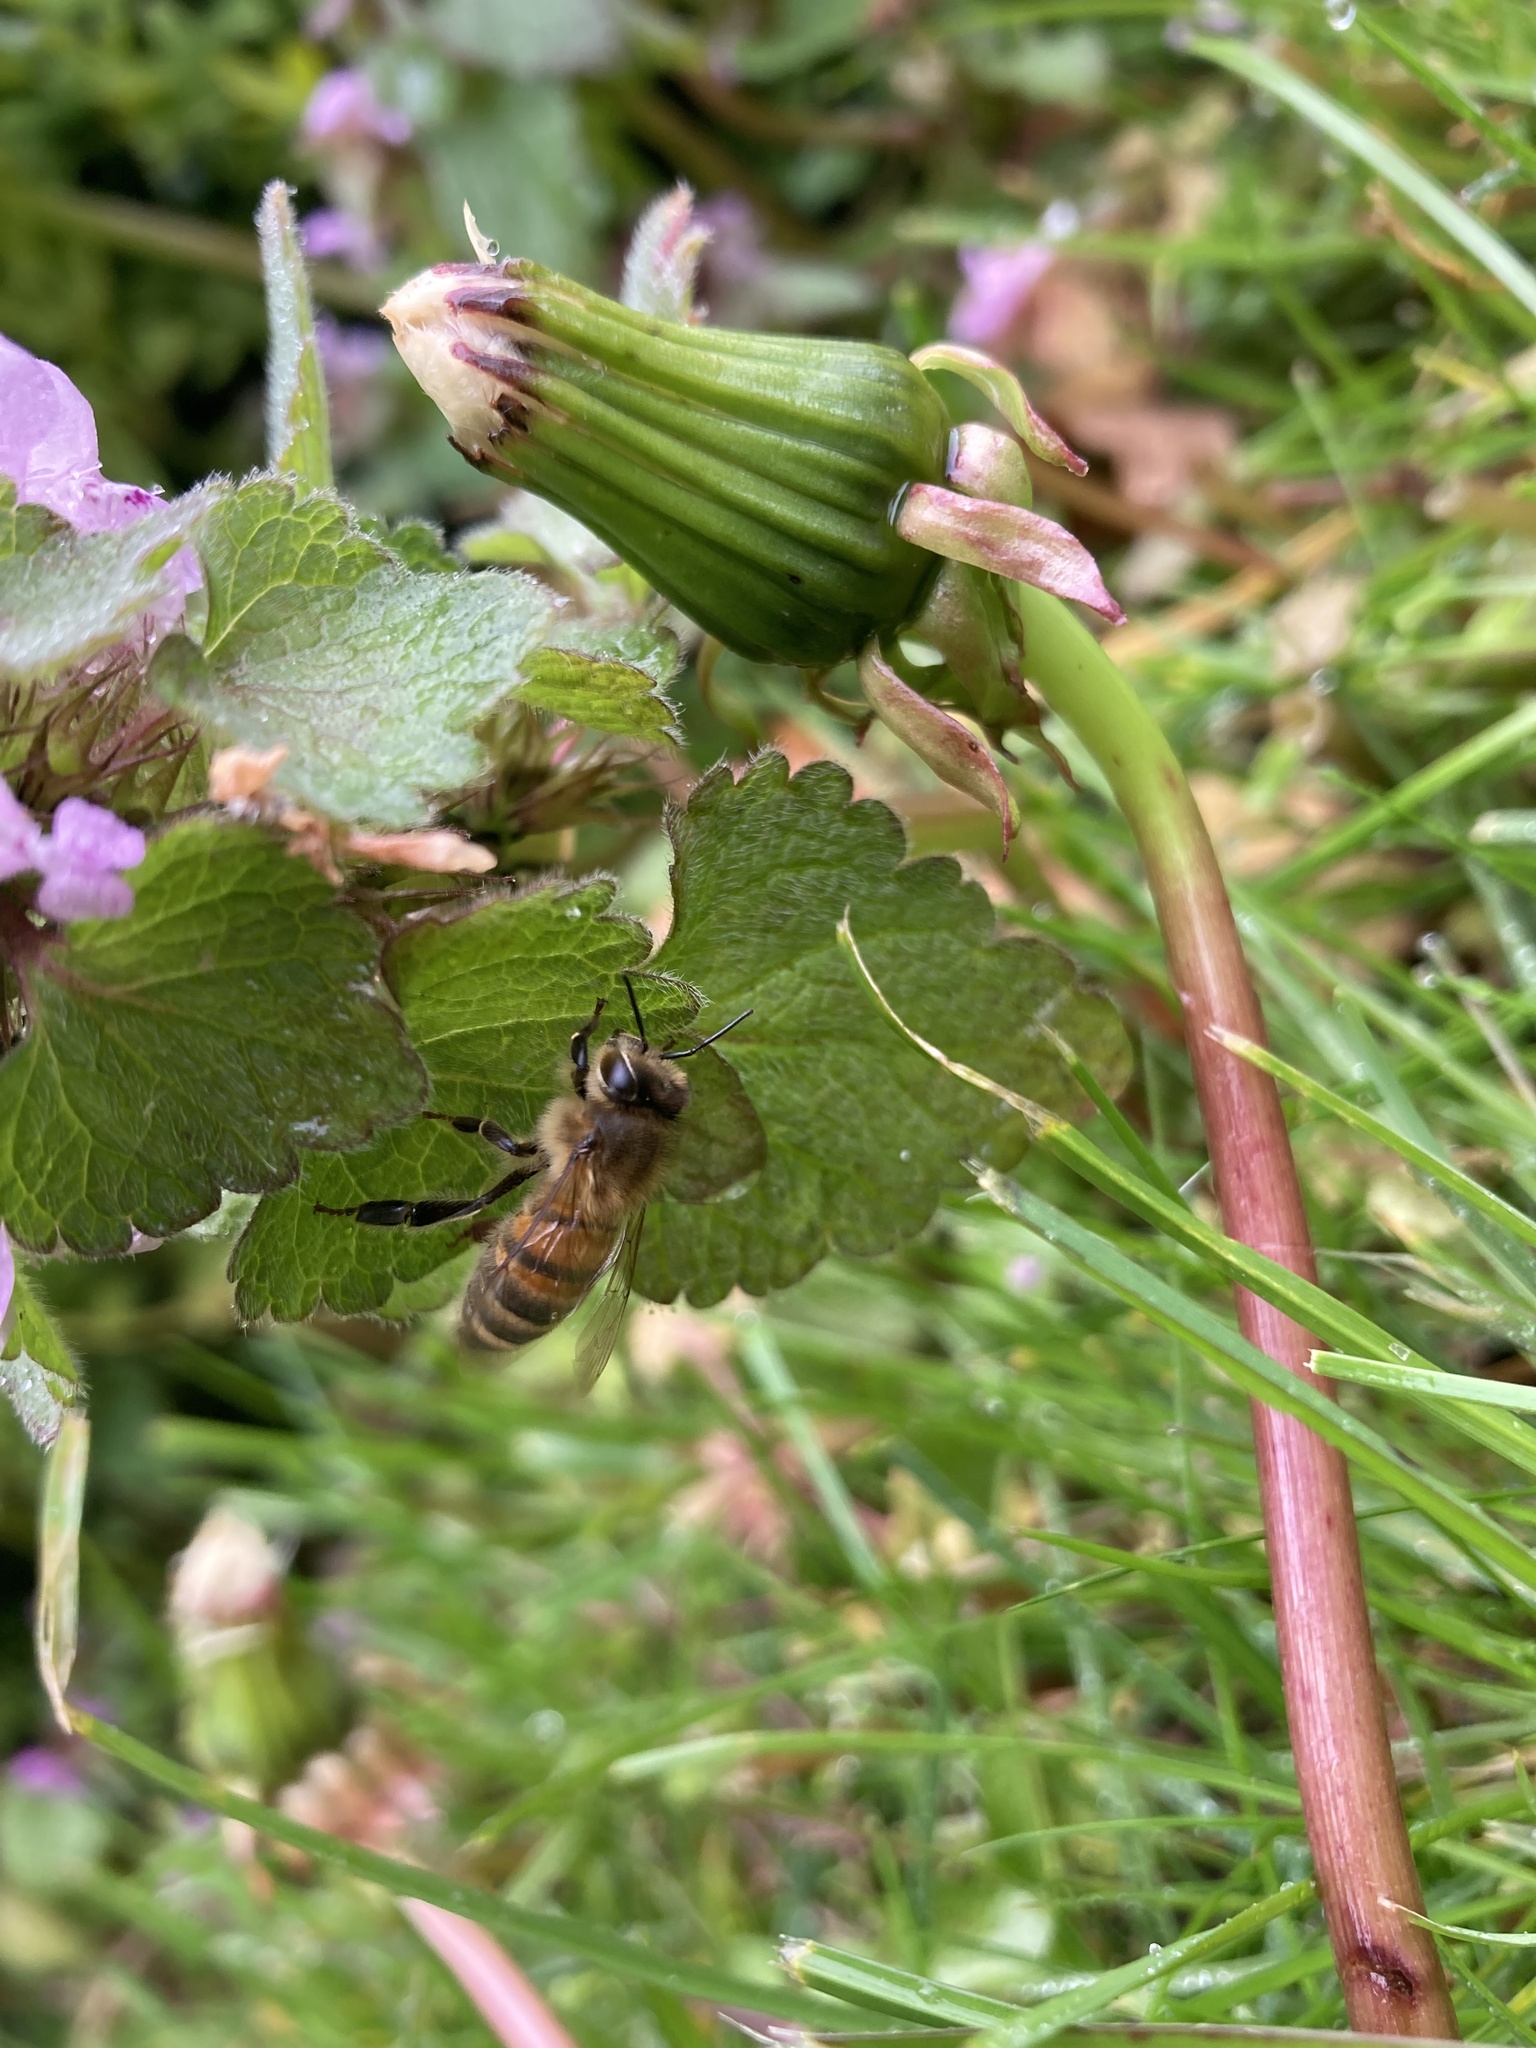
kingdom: Animalia
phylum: Arthropoda
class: Insecta
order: Hymenoptera
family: Apidae
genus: Apis
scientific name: Apis mellifera
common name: Honey bee
